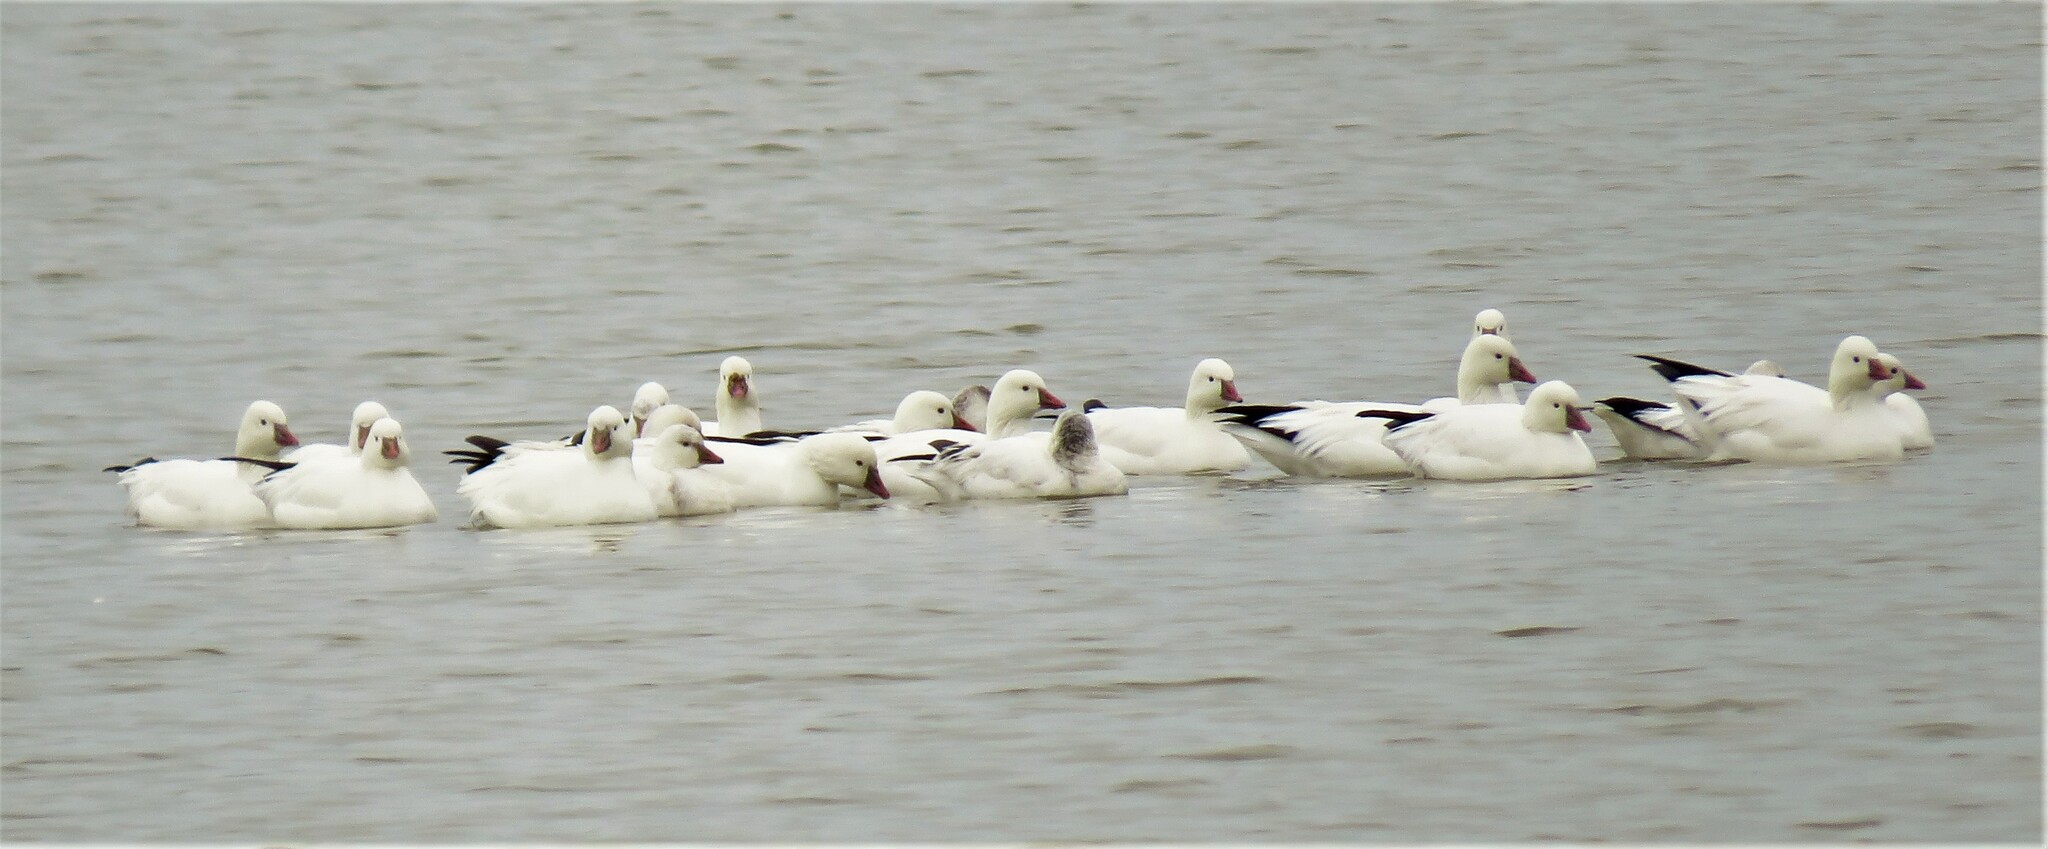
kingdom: Animalia
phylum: Chordata
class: Aves
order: Anseriformes
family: Anatidae
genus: Anser
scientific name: Anser rossii
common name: Ross's goose
